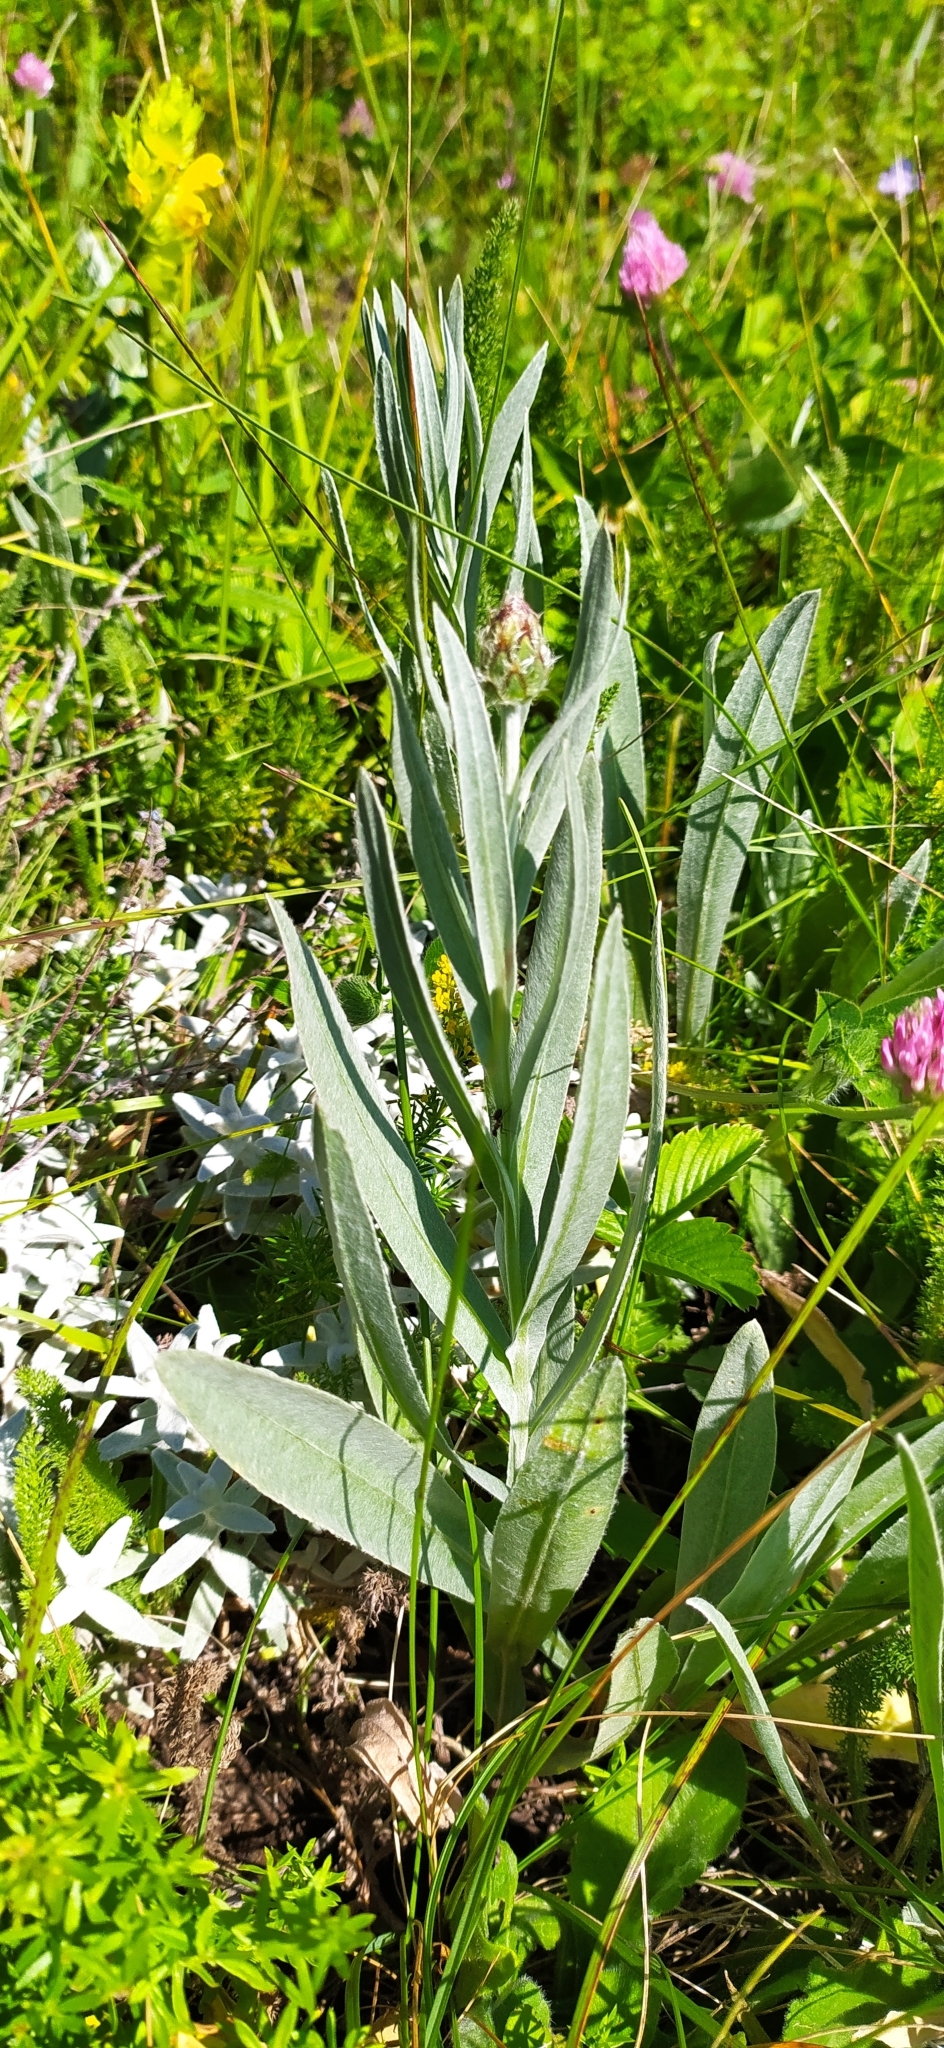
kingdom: Plantae
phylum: Tracheophyta
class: Magnoliopsida
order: Asterales
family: Asteraceae
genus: Centaurea
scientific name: Centaurea fuscomarginata
